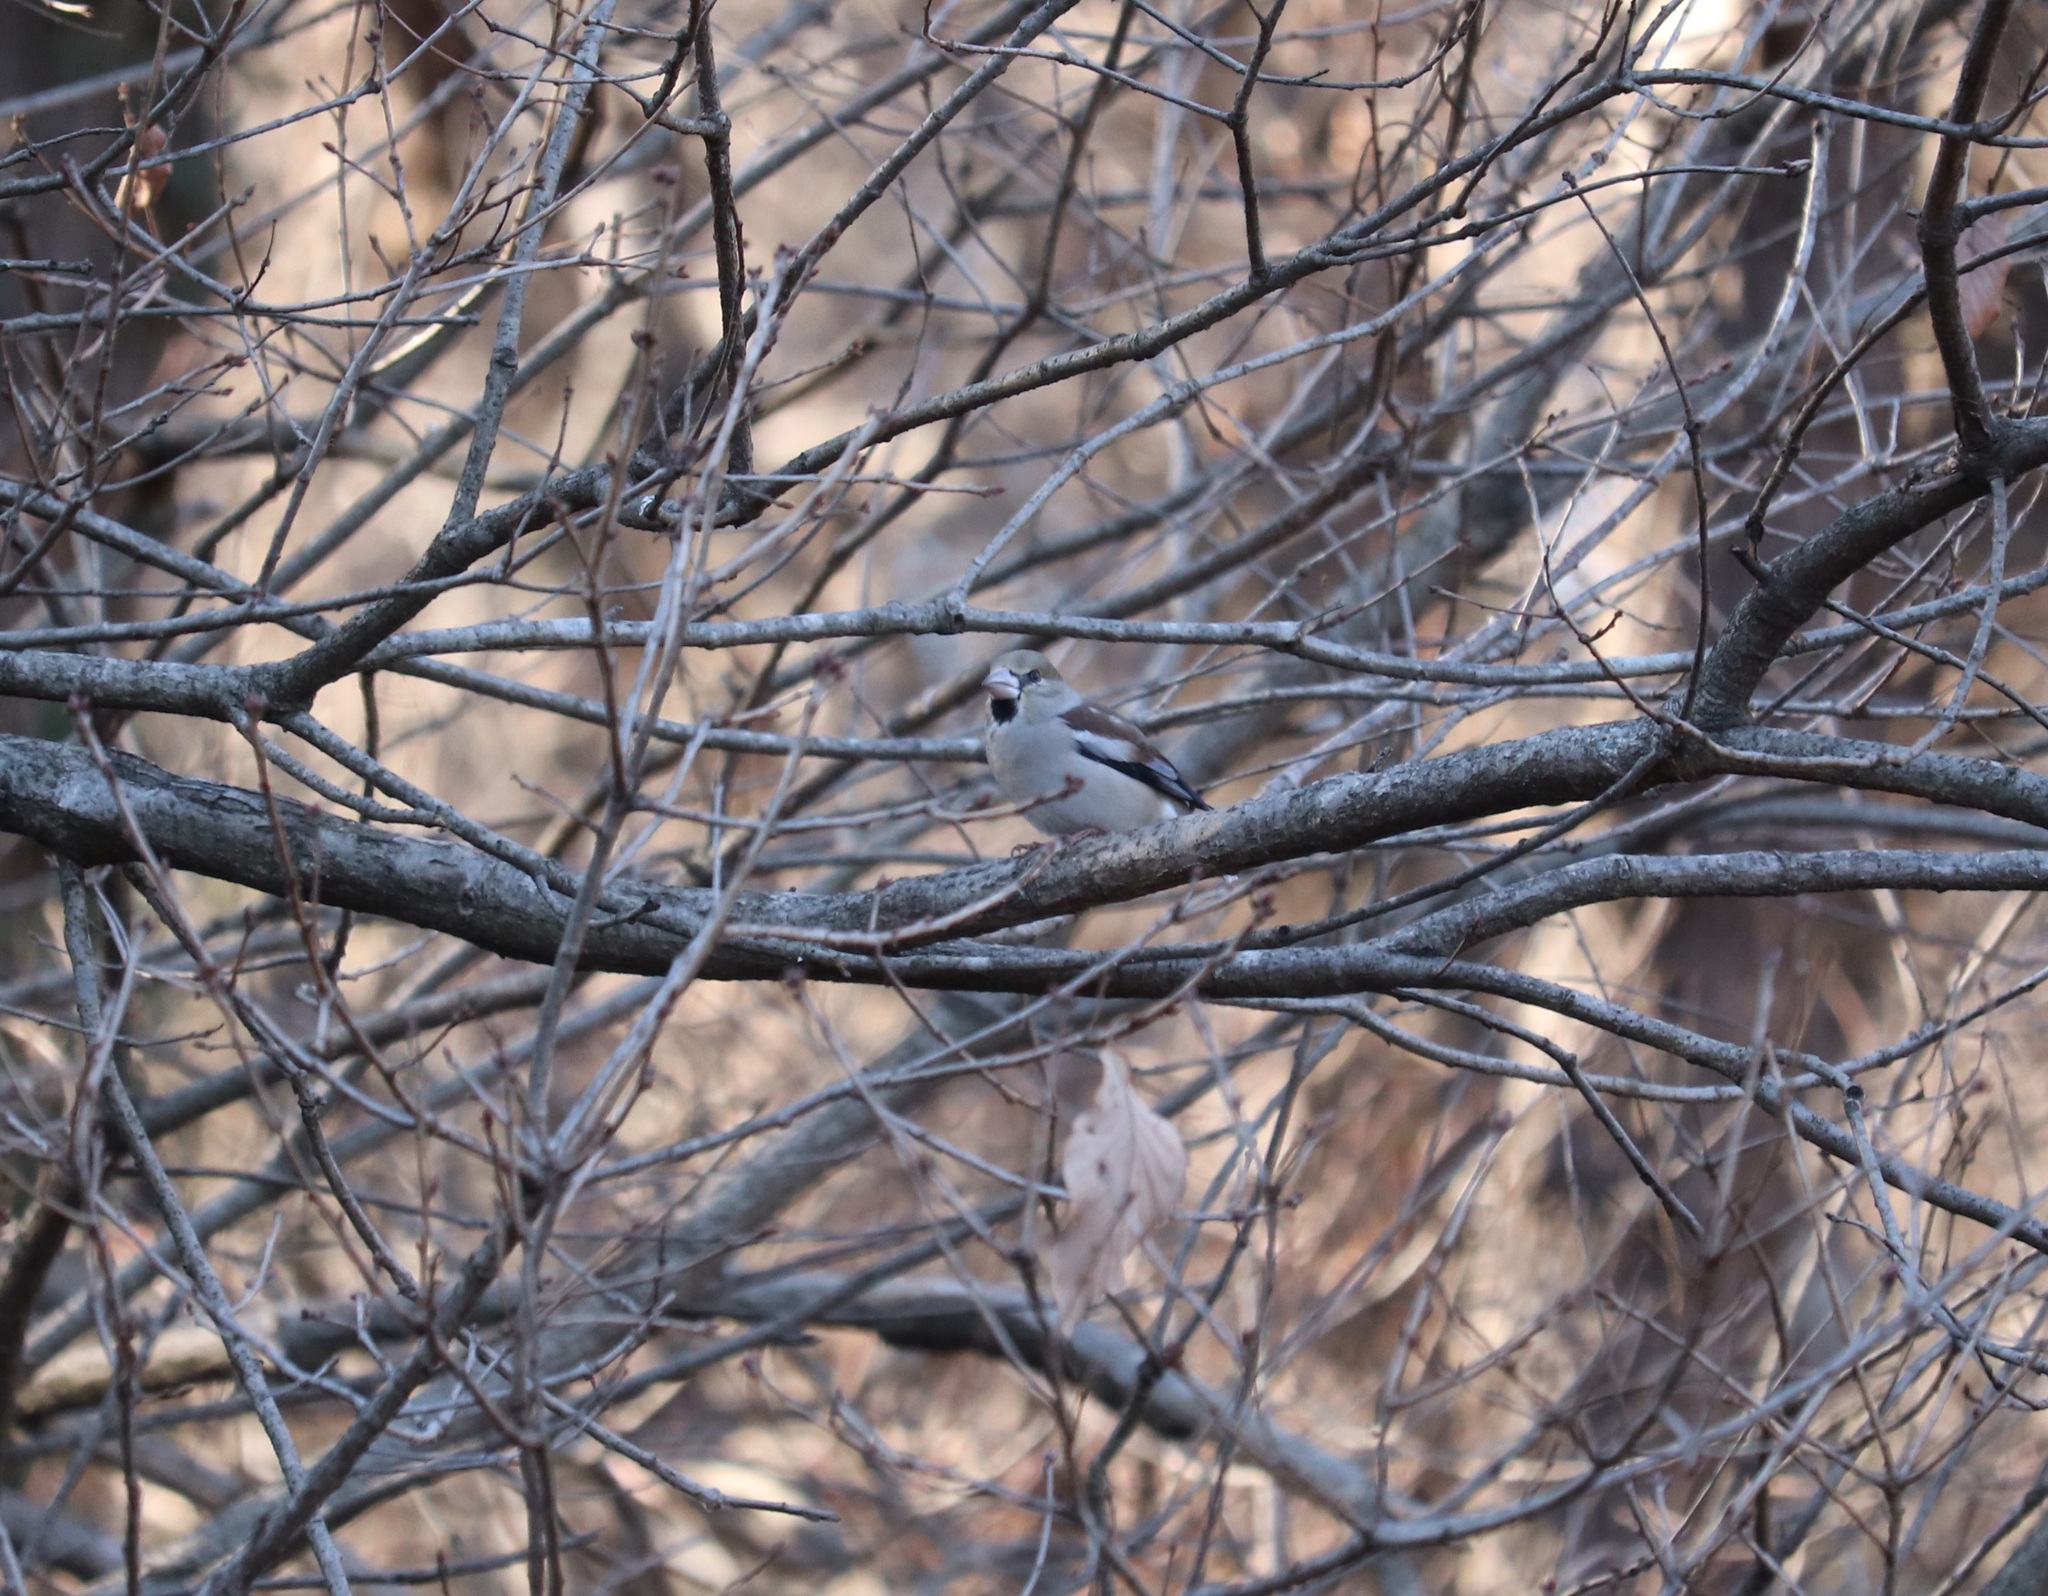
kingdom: Animalia
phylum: Chordata
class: Aves
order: Passeriformes
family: Fringillidae
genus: Coccothraustes
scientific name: Coccothraustes coccothraustes
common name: Hawfinch
